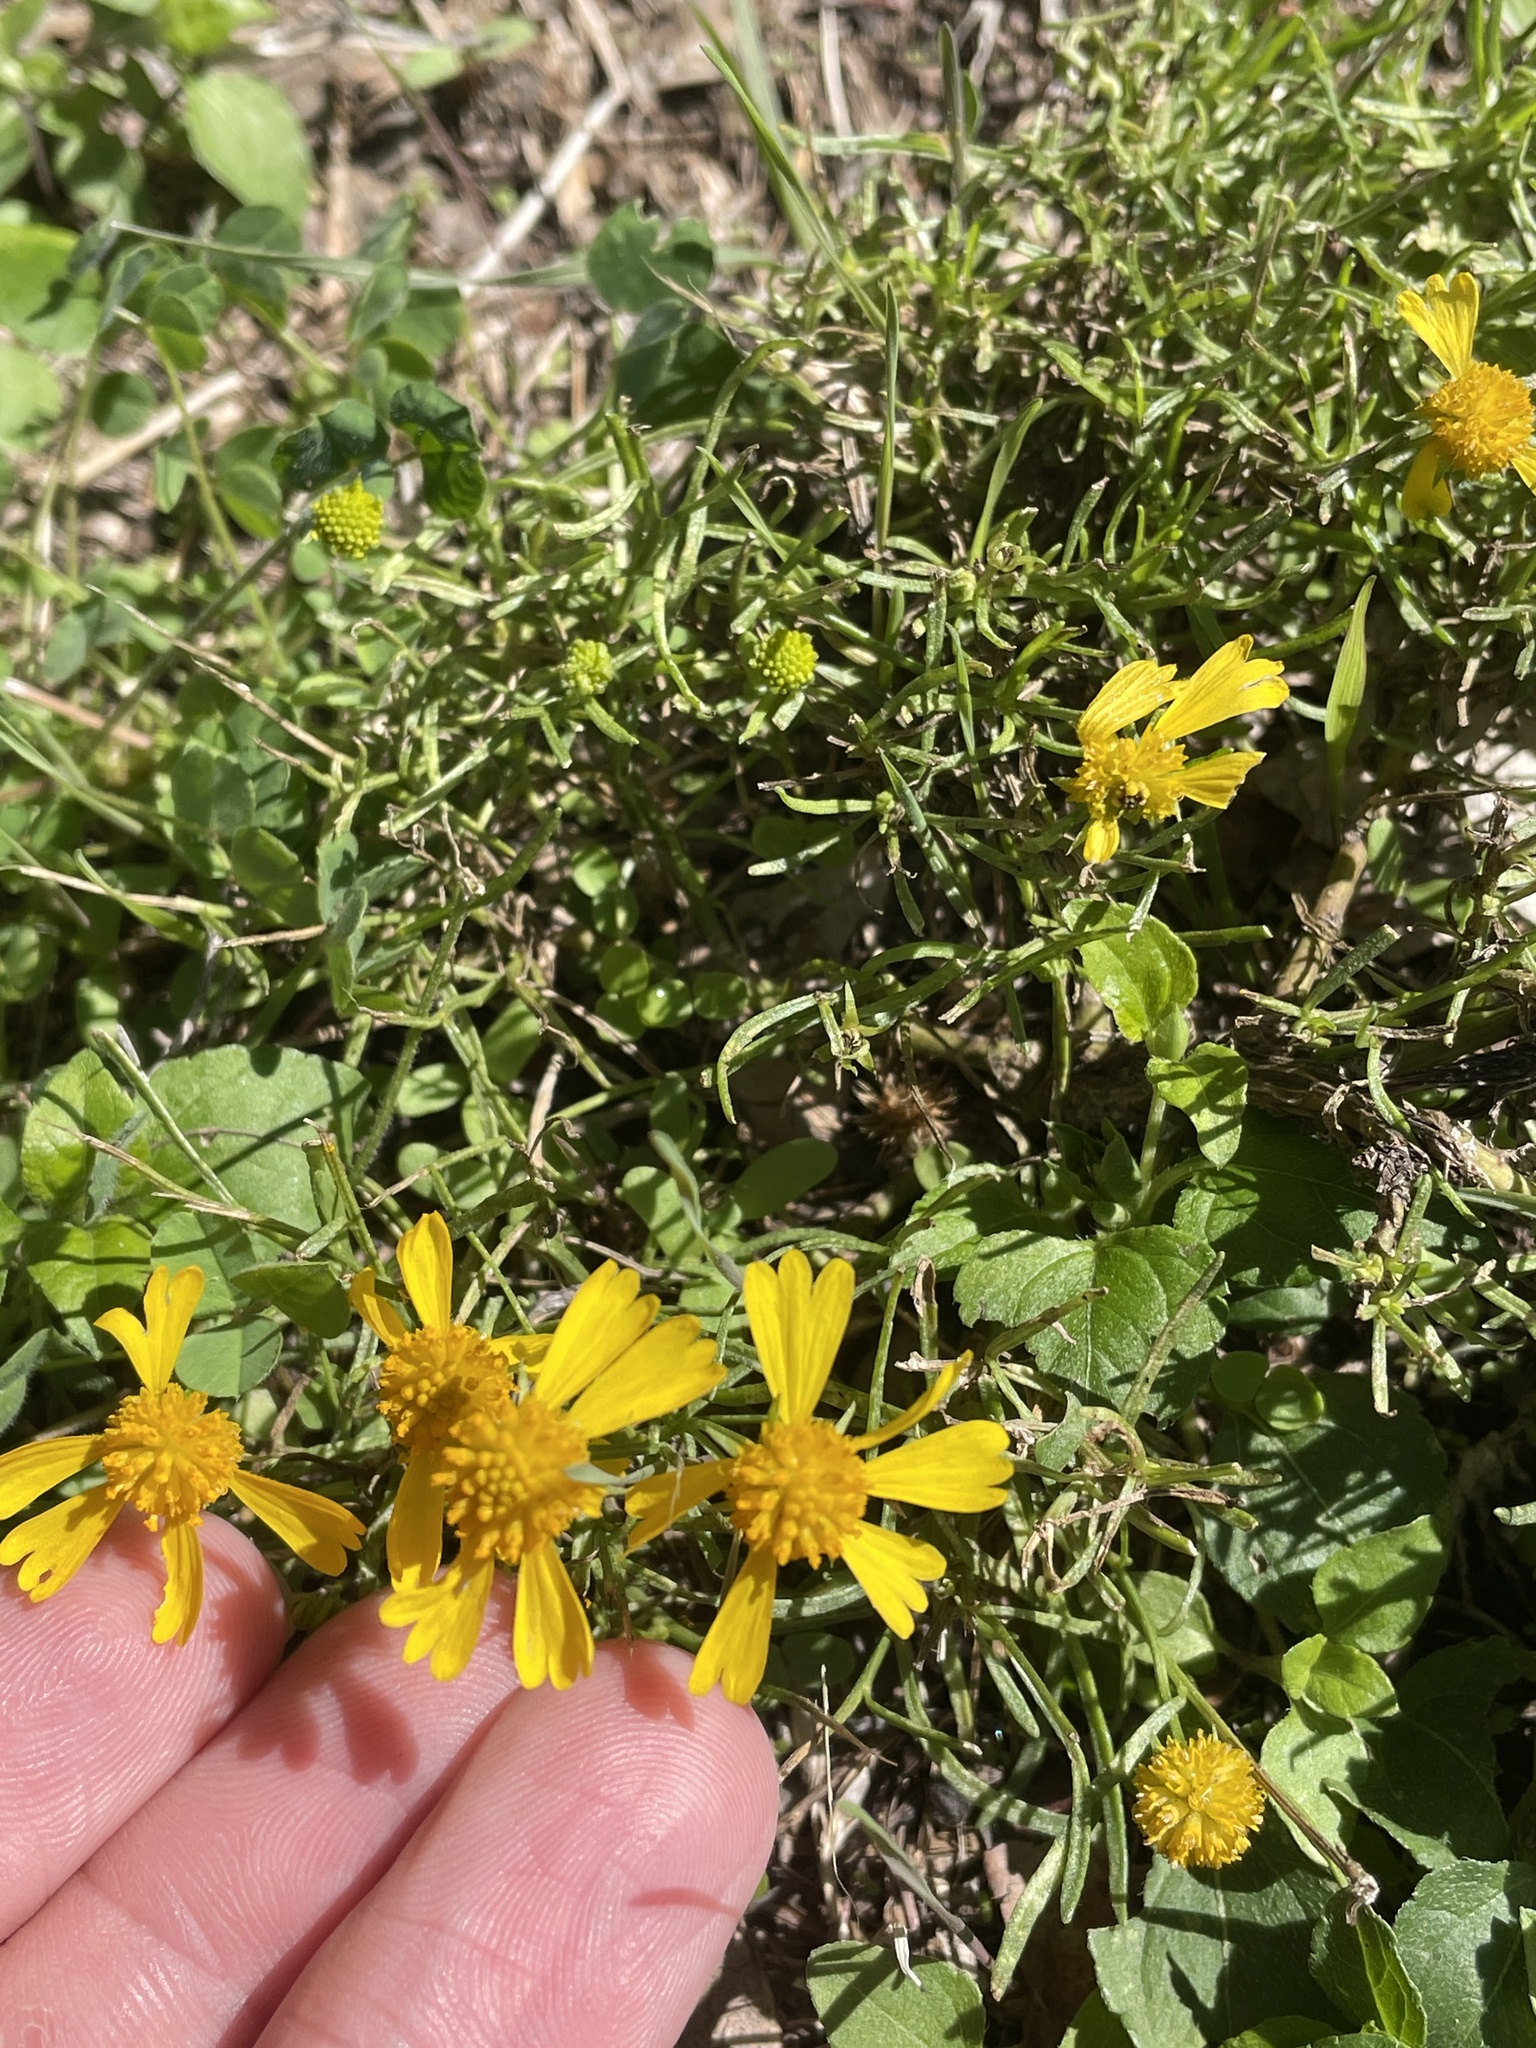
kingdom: Plantae
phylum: Tracheophyta
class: Magnoliopsida
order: Asterales
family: Asteraceae
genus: Helenium
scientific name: Helenium amarum
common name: Bitter sneezeweed
